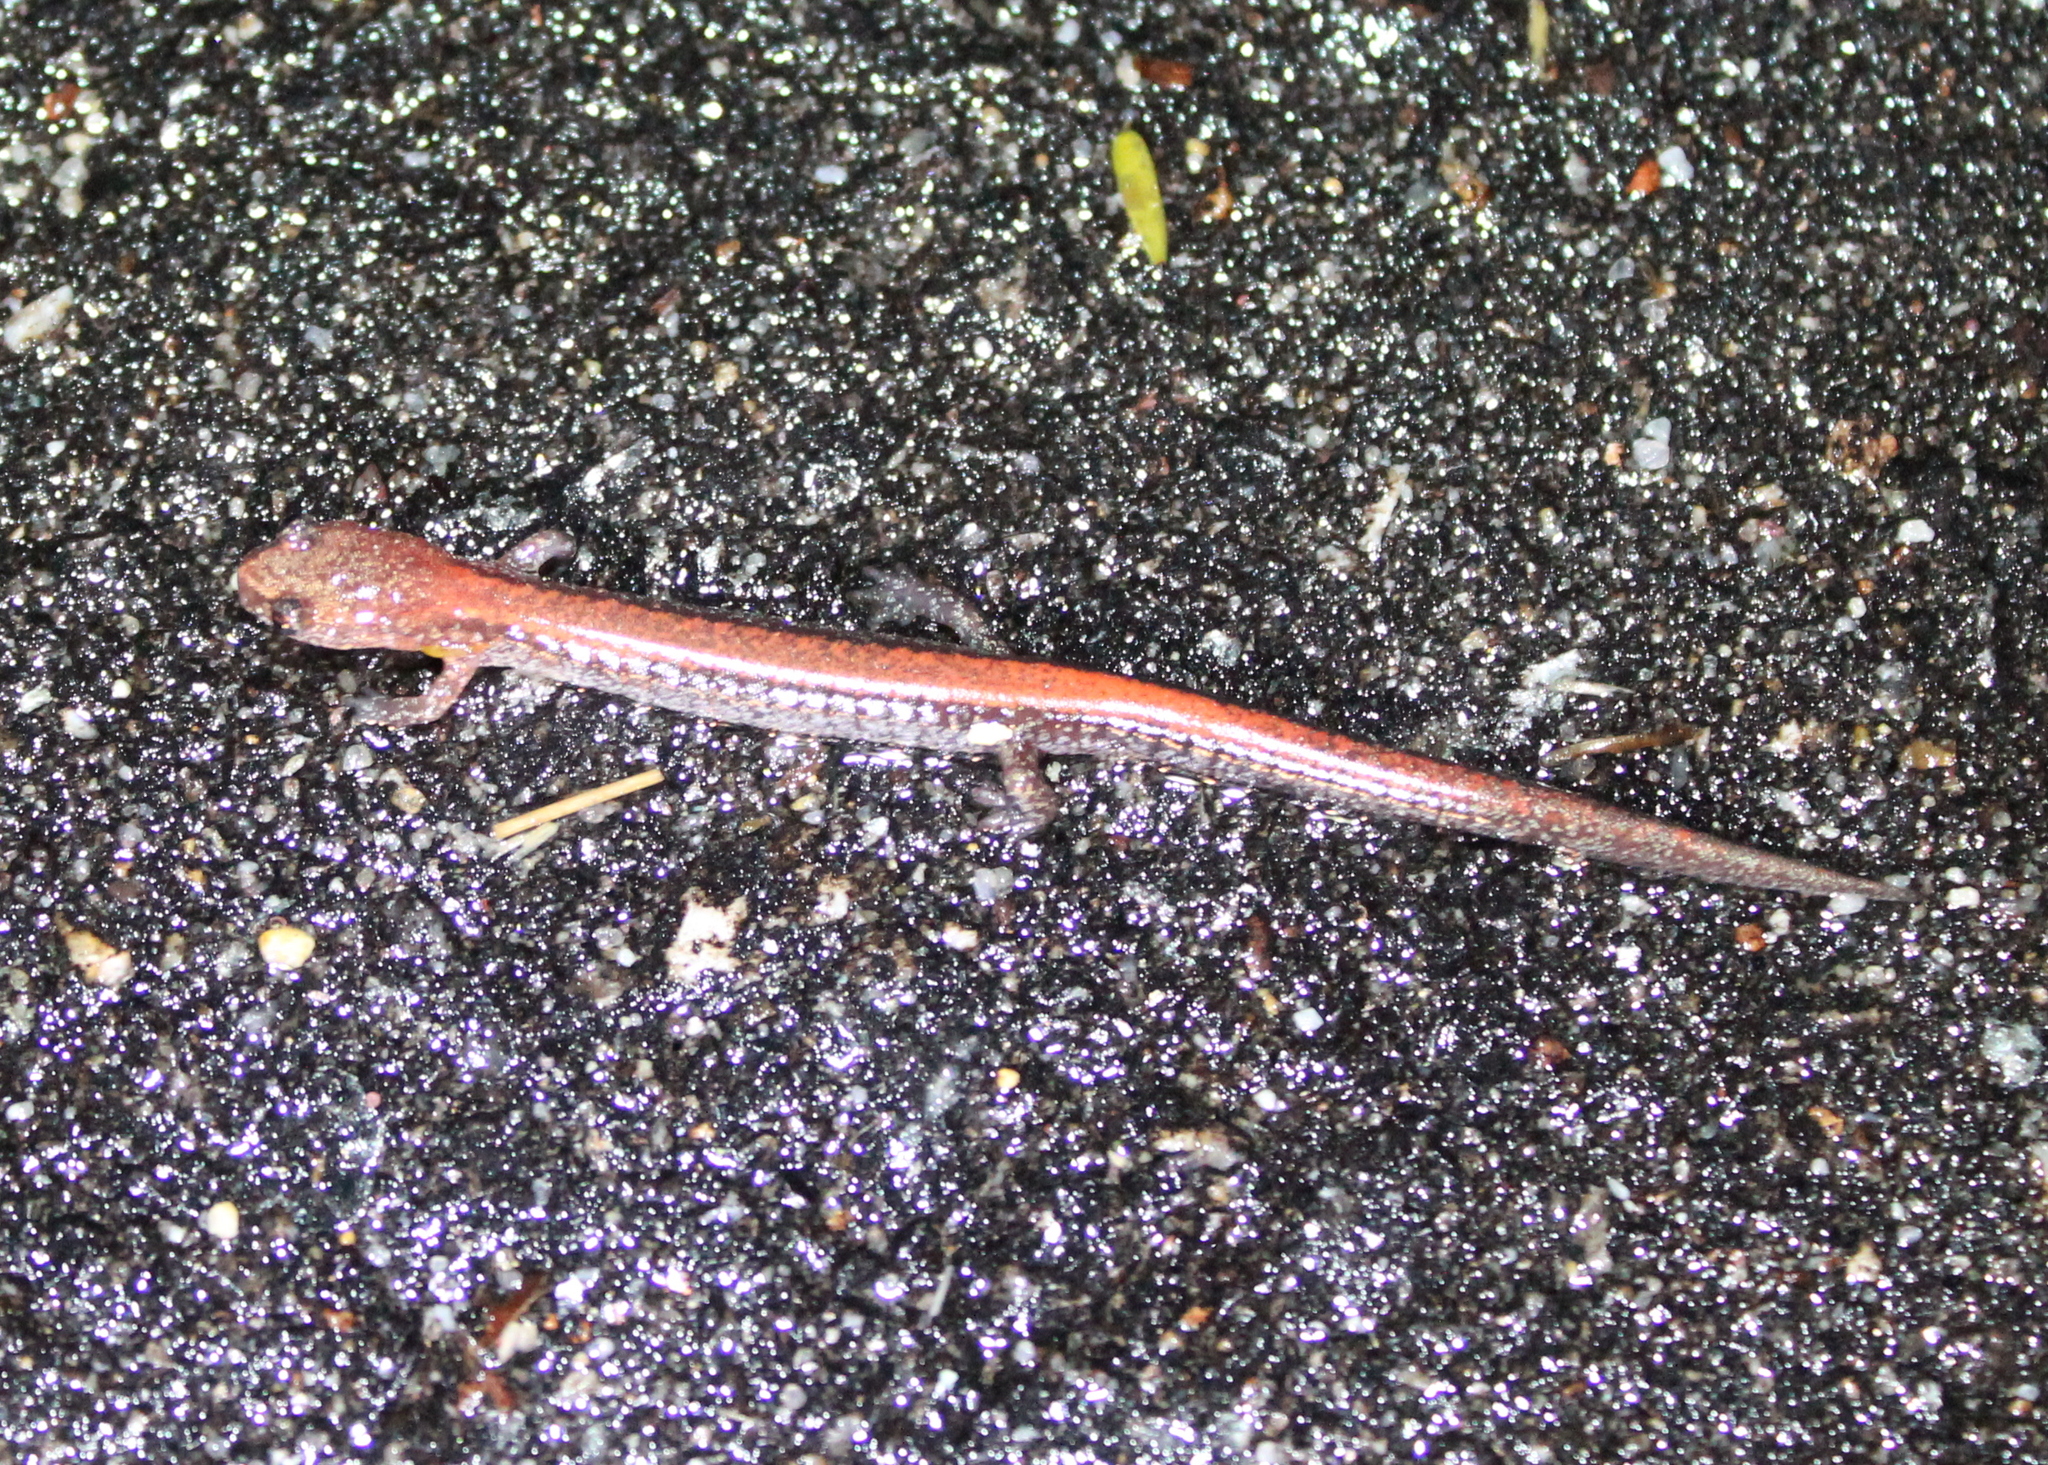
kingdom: Animalia
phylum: Chordata
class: Amphibia
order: Caudata
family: Plethodontidae
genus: Plethodon
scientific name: Plethodon cinereus
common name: Redback salamander
